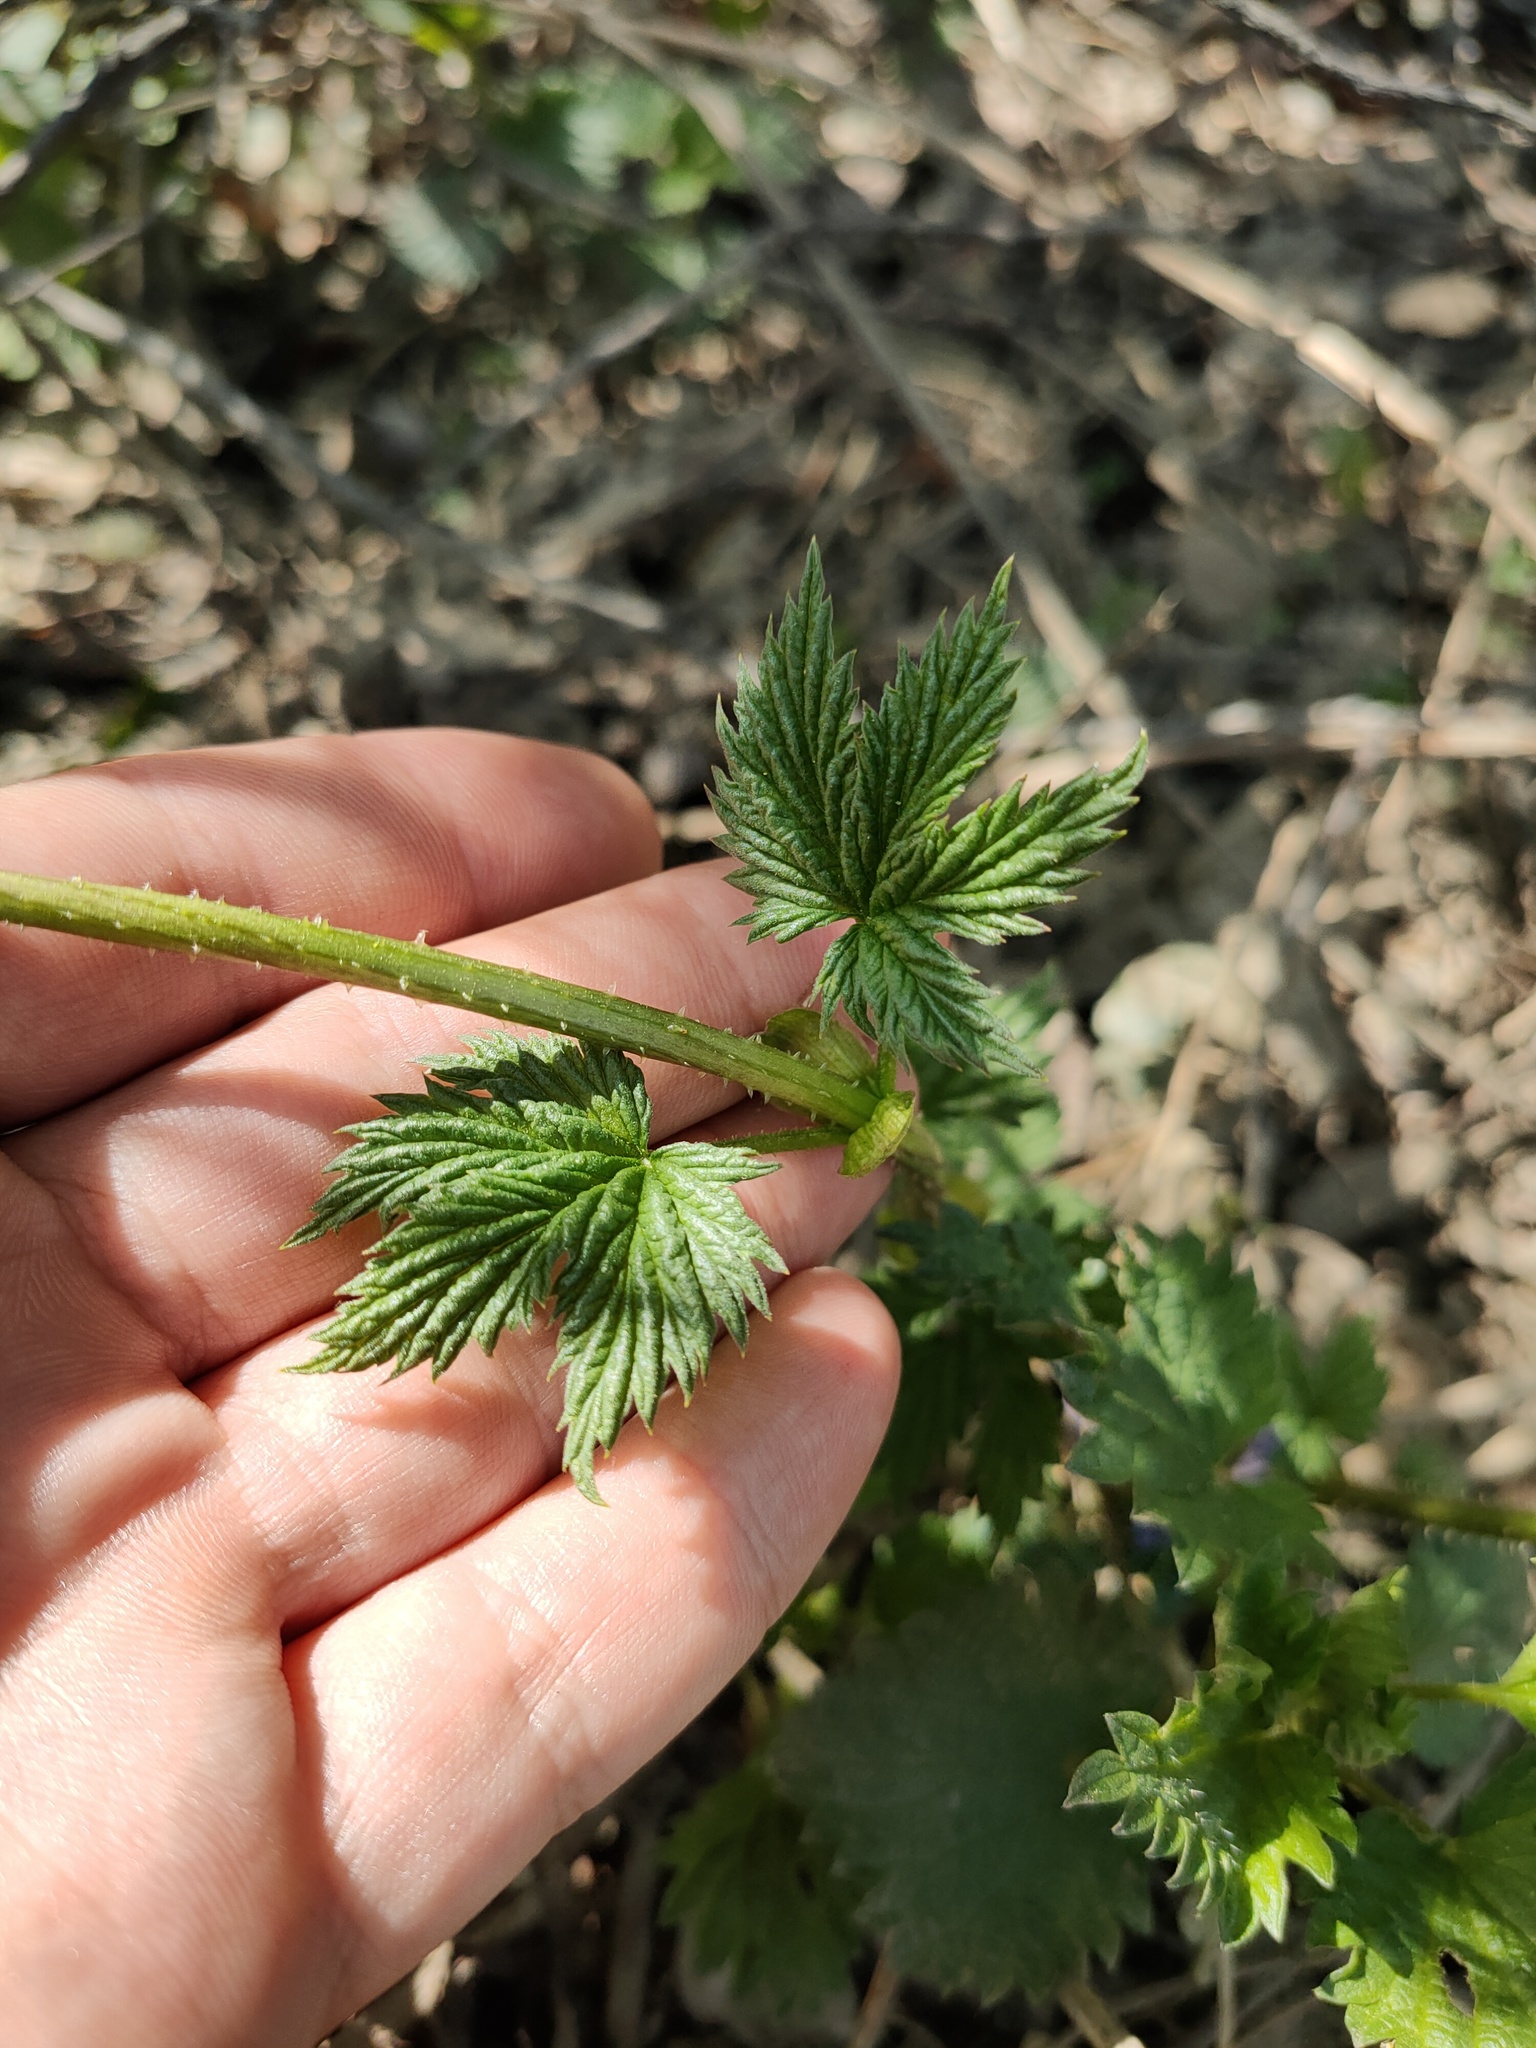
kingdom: Plantae
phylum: Tracheophyta
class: Magnoliopsida
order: Rosales
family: Cannabaceae
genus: Humulus
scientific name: Humulus lupulus
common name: Hop
